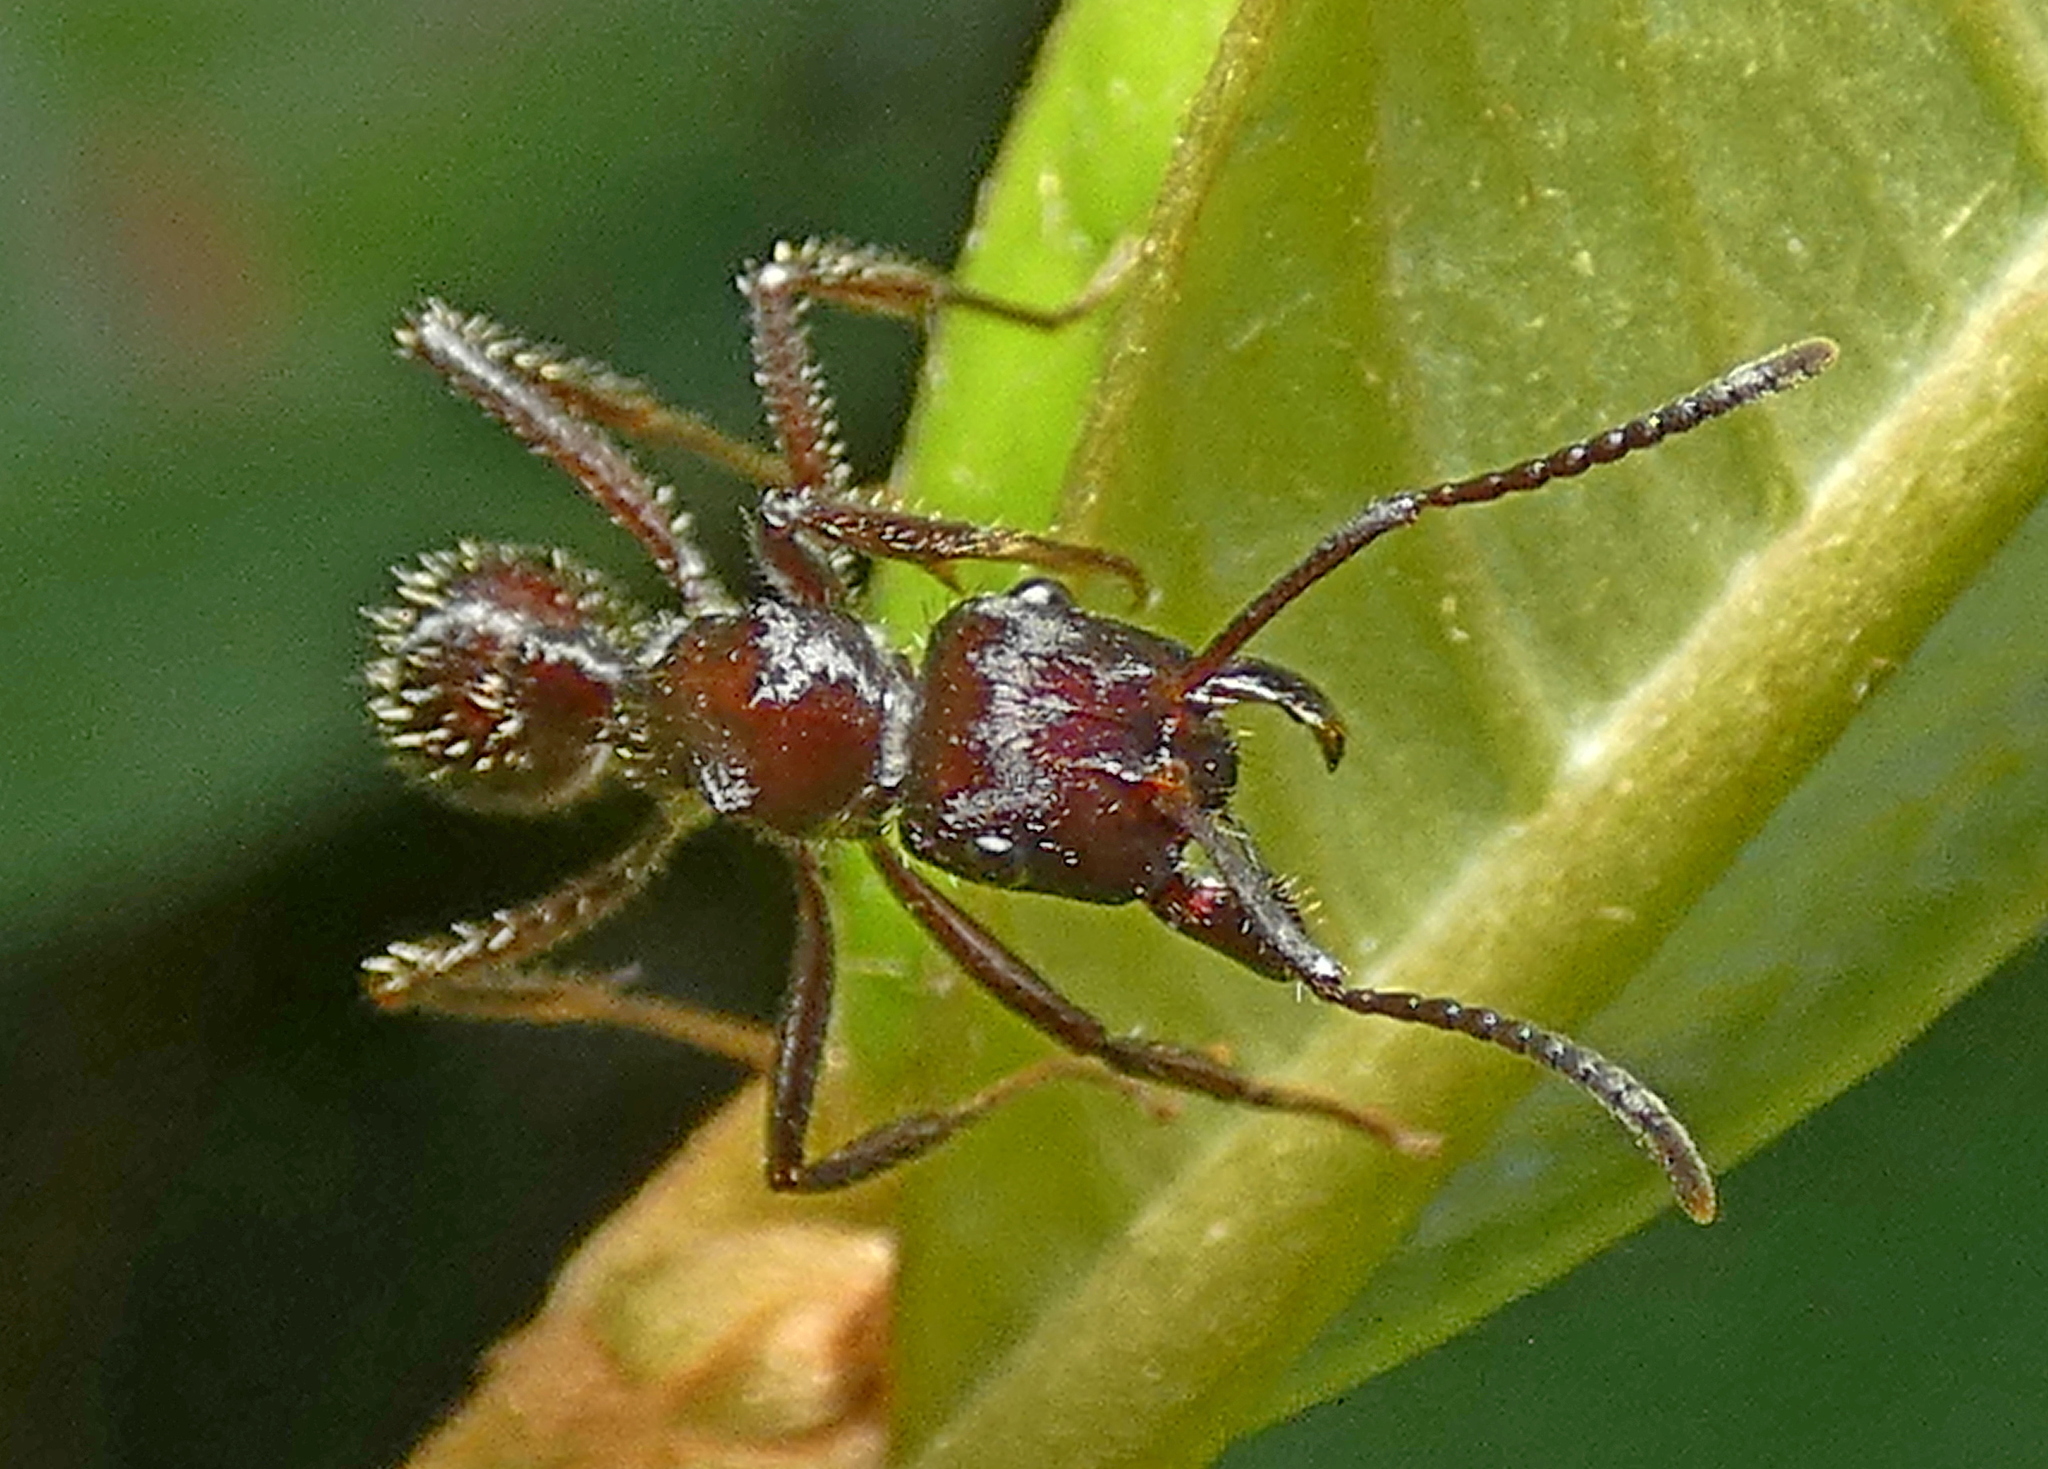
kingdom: Animalia
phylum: Arthropoda
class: Insecta
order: Hymenoptera
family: Formicidae
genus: Ectatomma
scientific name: Ectatomma brunneum
